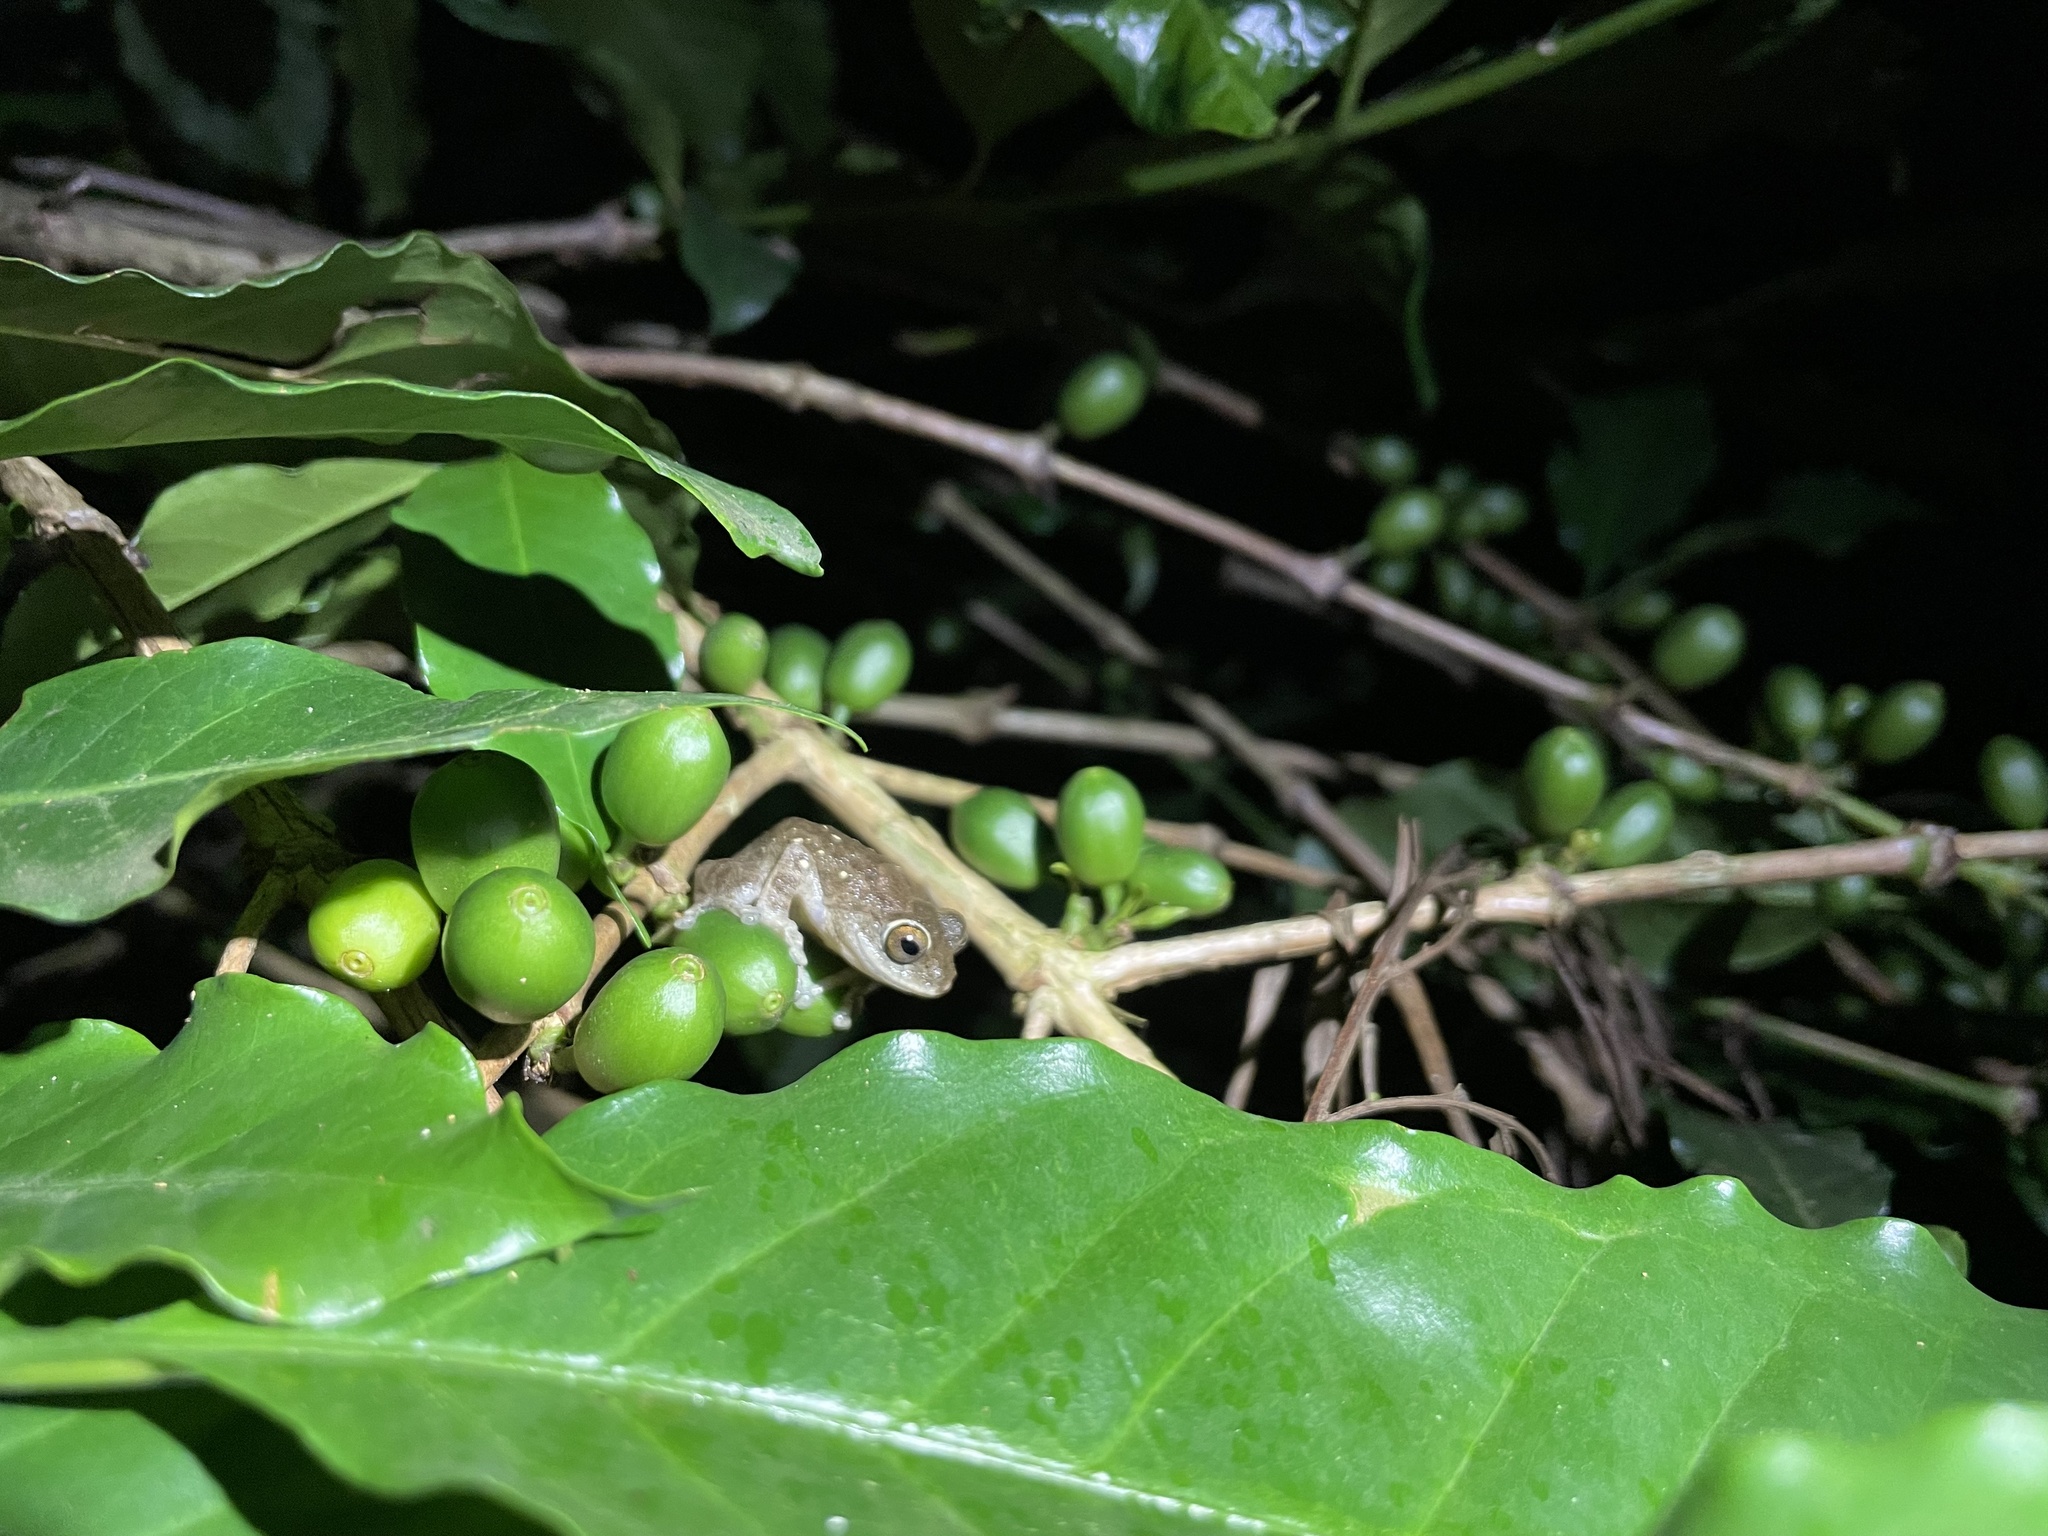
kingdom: Animalia
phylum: Chordata
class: Amphibia
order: Anura
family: Rhacophoridae
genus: Raorchestes
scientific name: Raorchestes hassanensis
